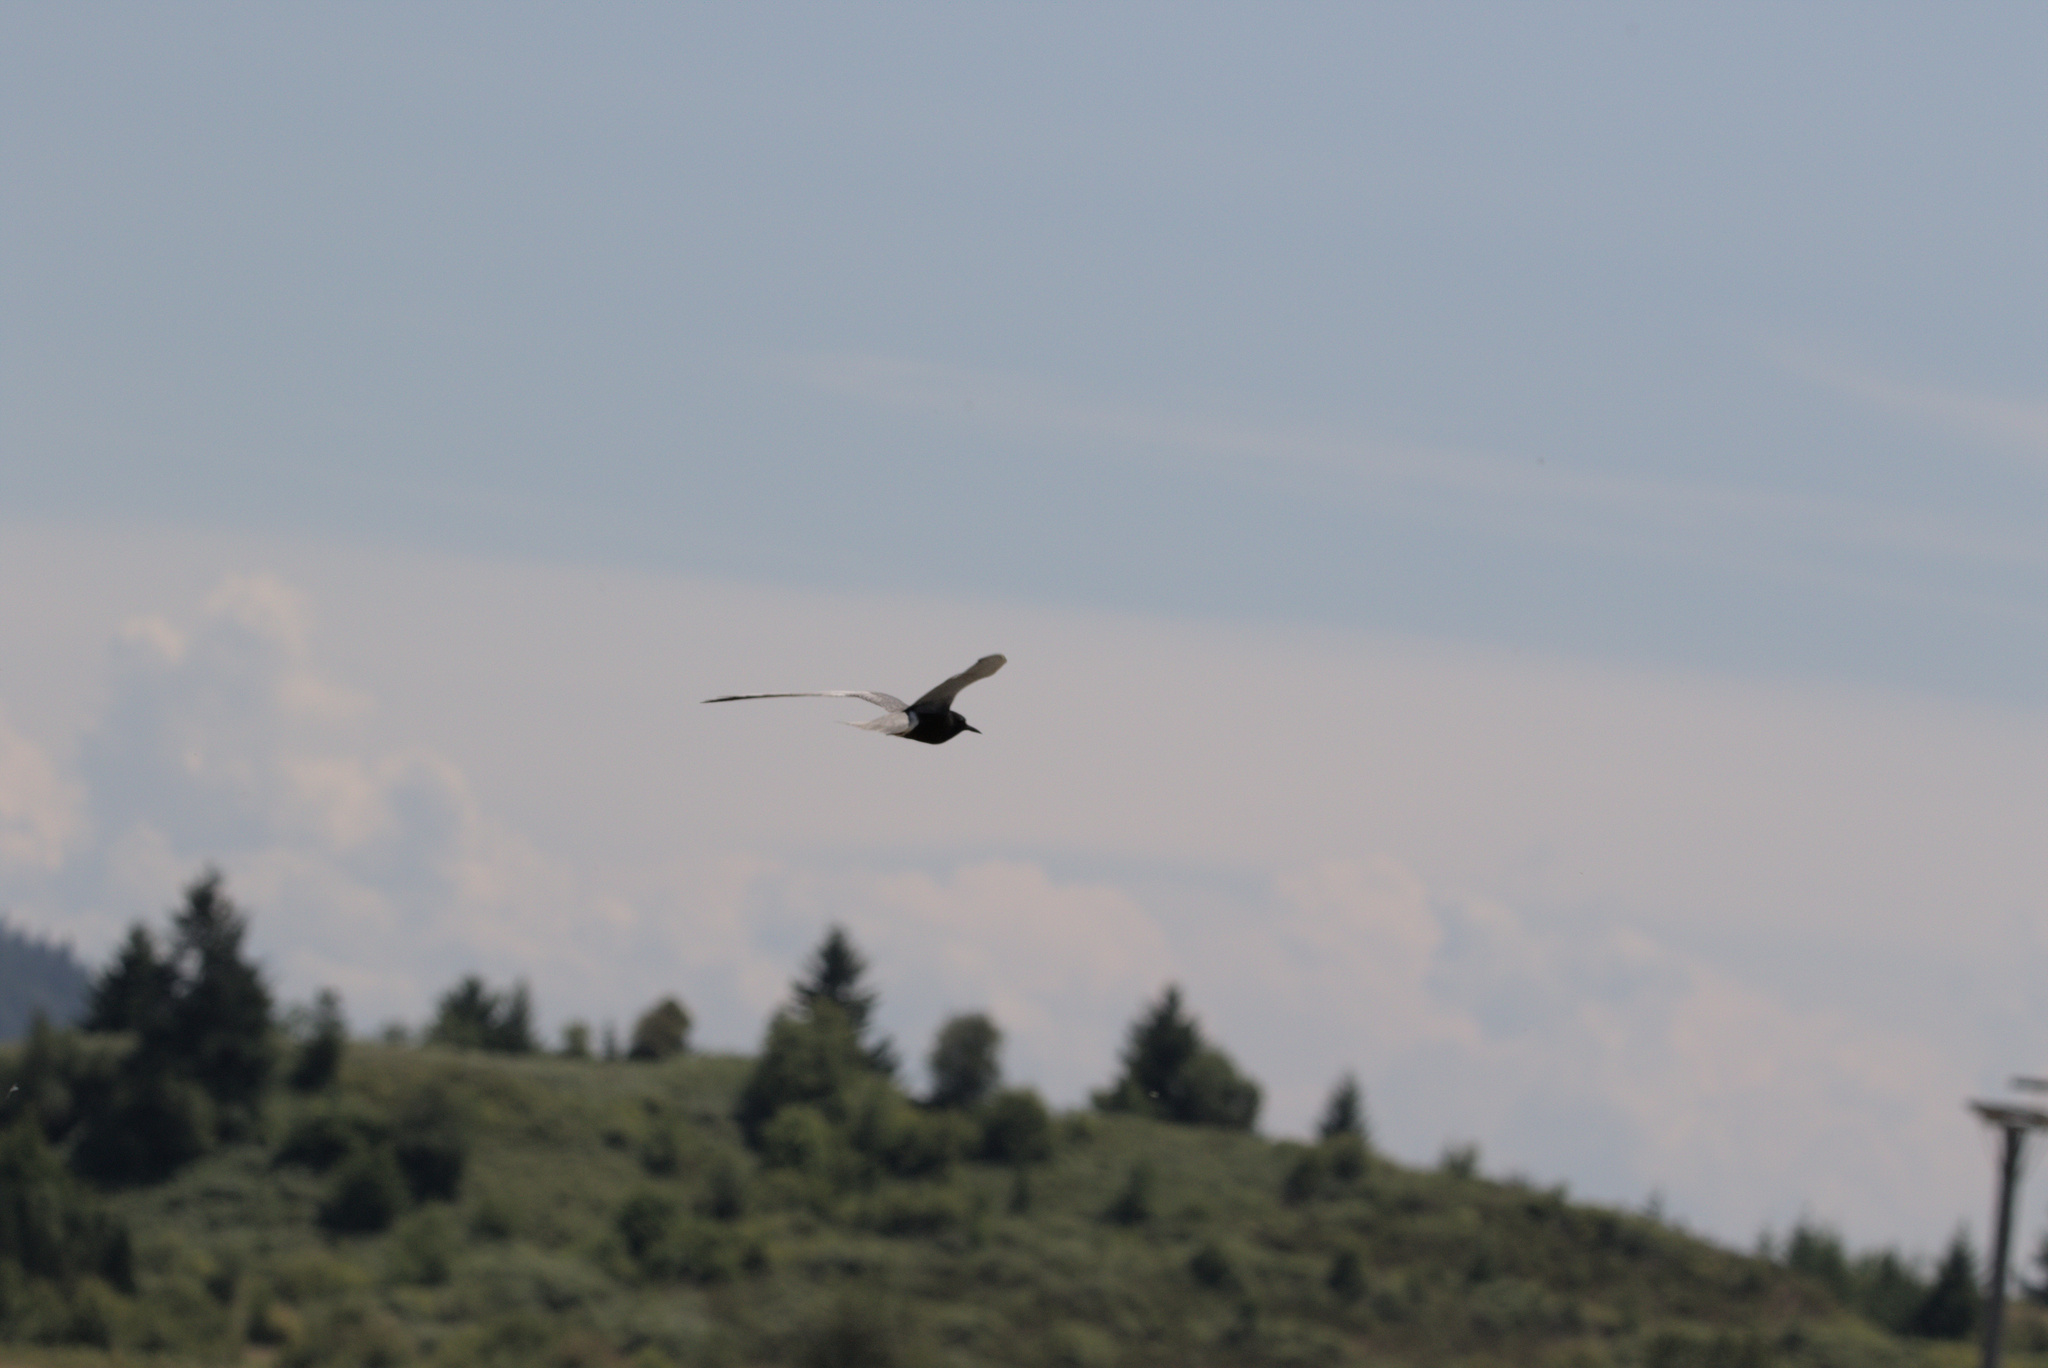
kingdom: Animalia
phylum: Chordata
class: Aves
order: Charadriiformes
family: Laridae
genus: Chlidonias
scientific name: Chlidonias niger
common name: Black tern
